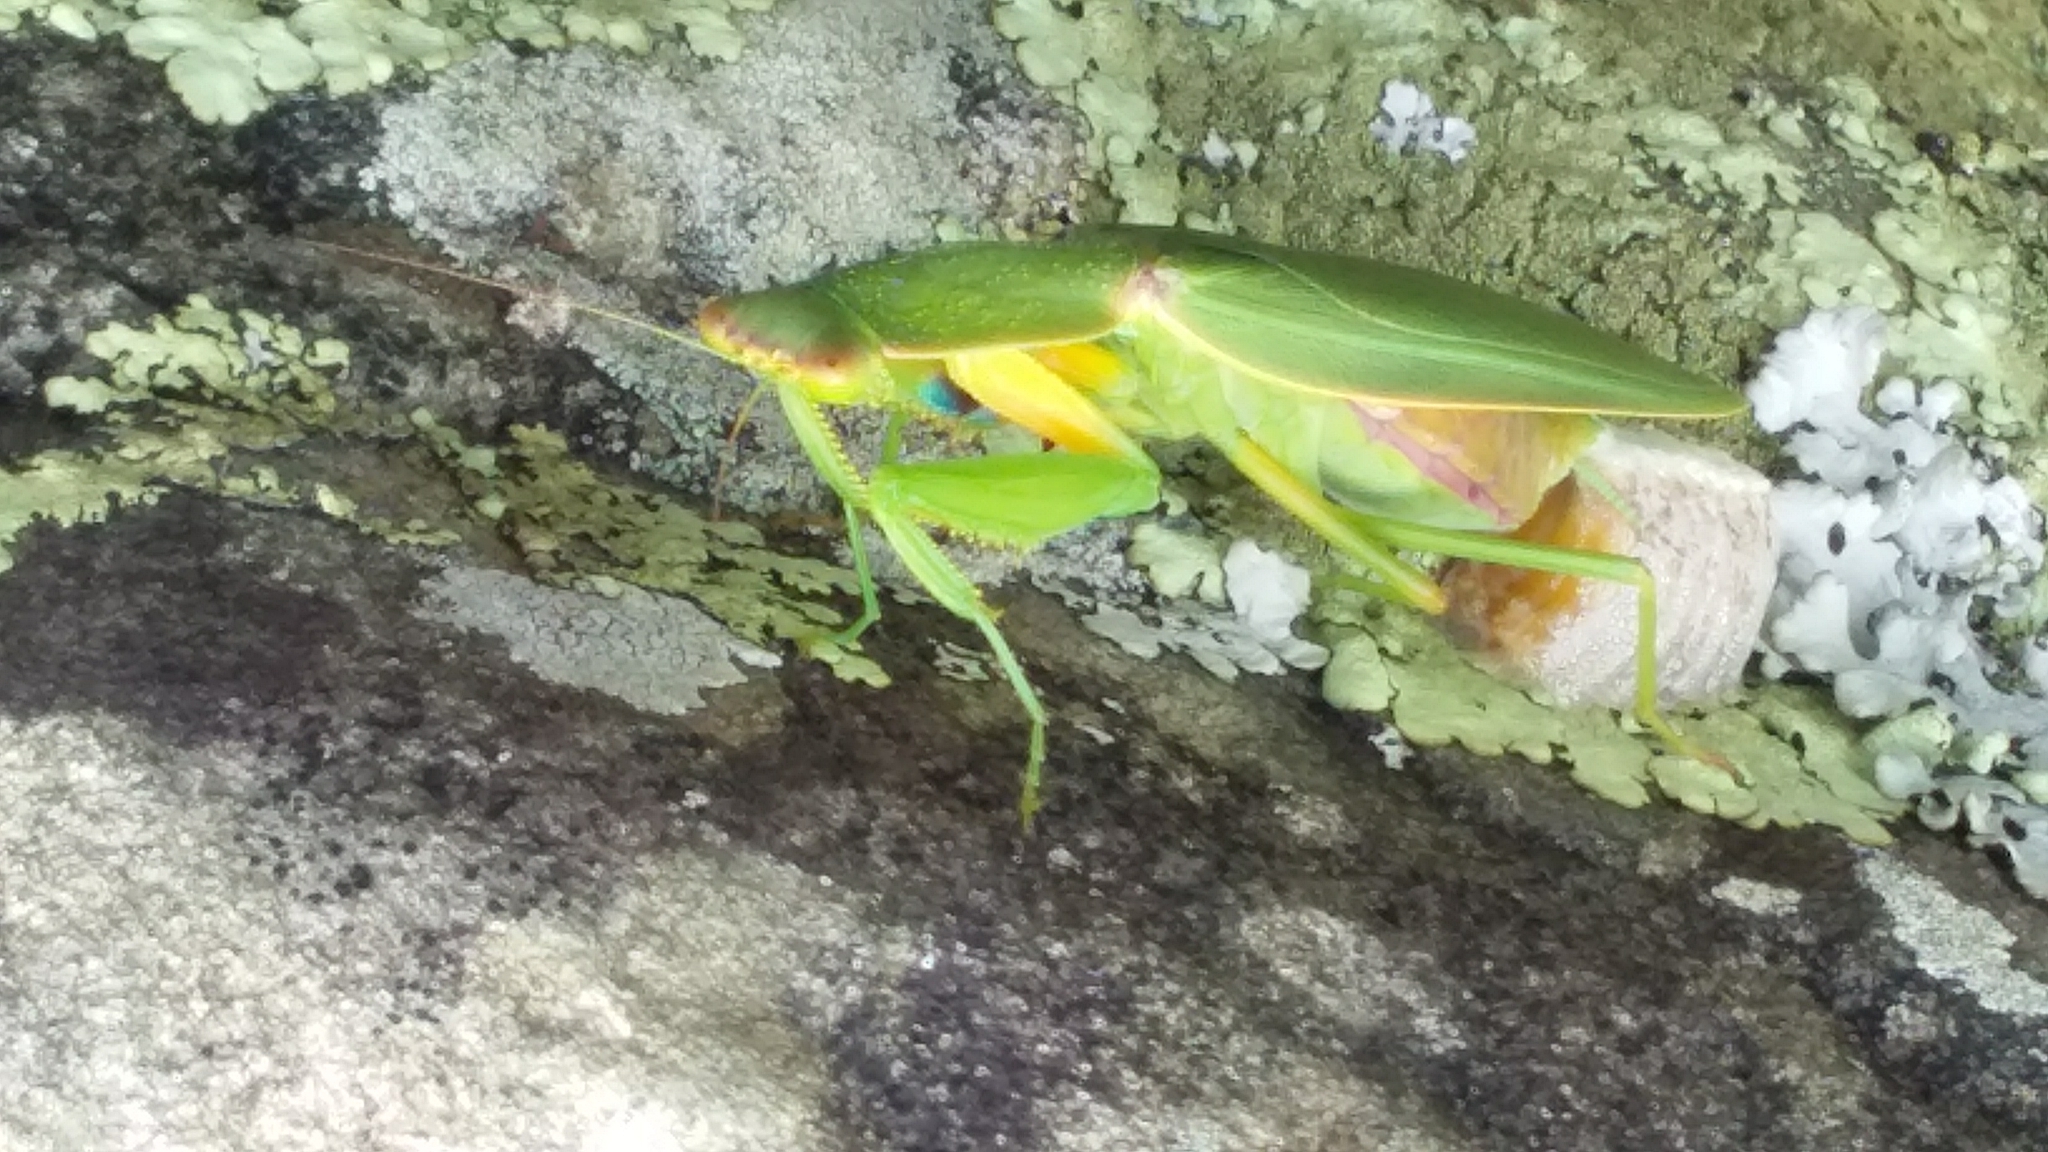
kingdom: Animalia
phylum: Arthropoda
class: Insecta
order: Mantodea
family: Mantidae
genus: Orthodera
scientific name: Orthodera novaezealandiae
